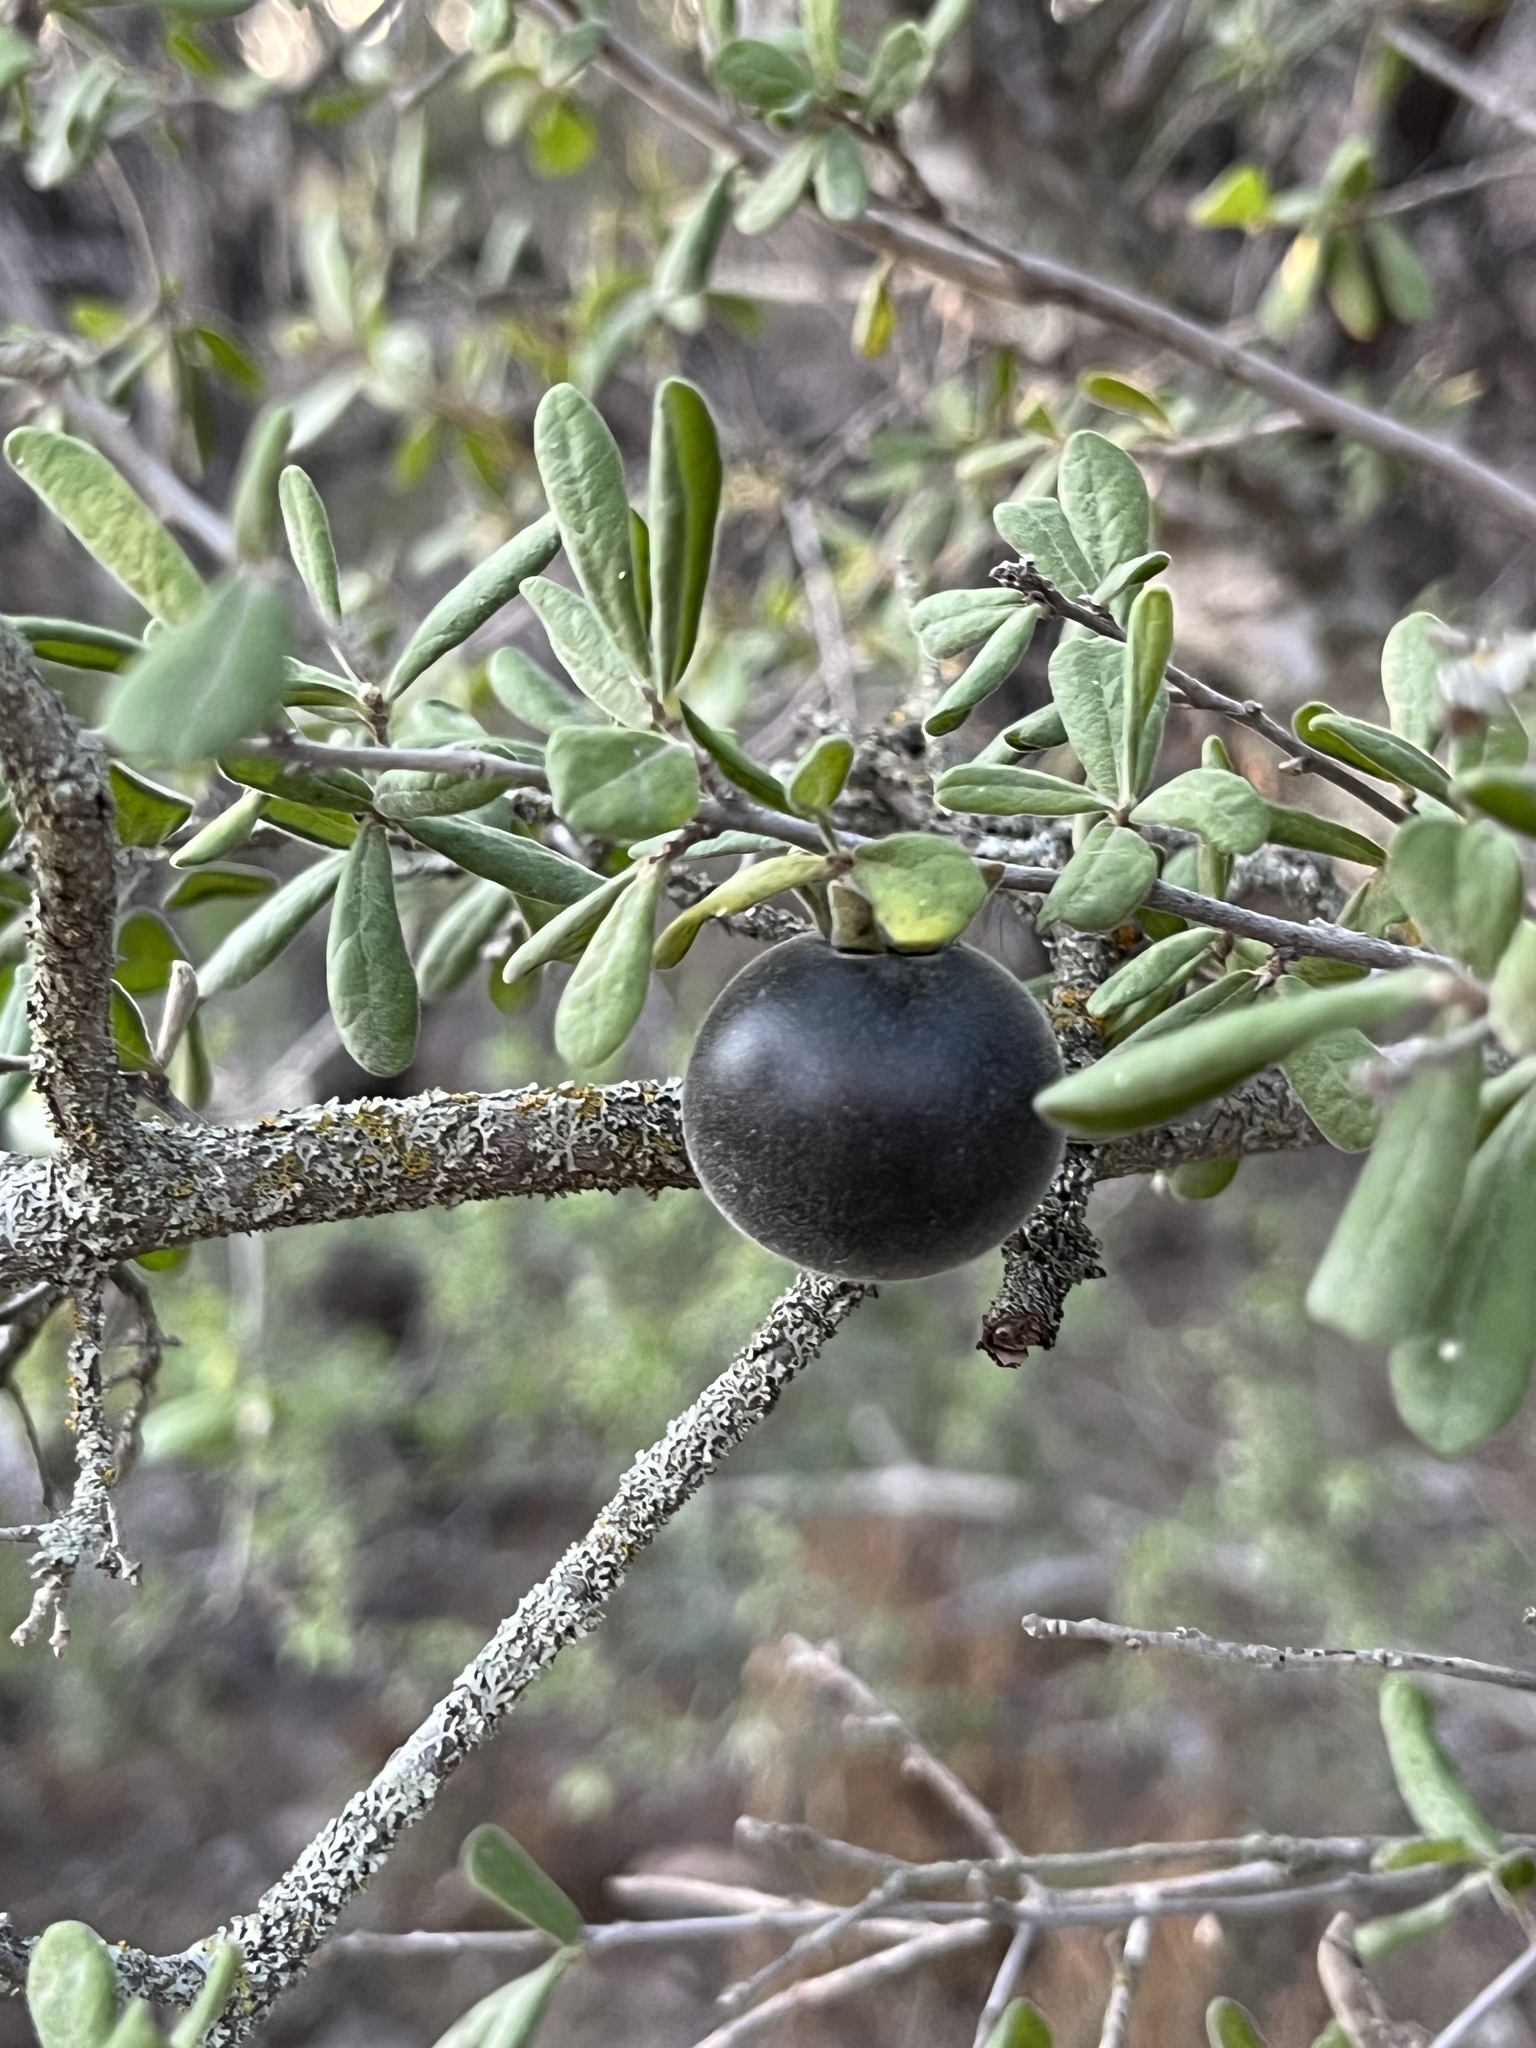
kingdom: Plantae
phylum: Tracheophyta
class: Magnoliopsida
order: Ericales
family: Ebenaceae
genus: Diospyros
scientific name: Diospyros texana
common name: Texas persimmon
